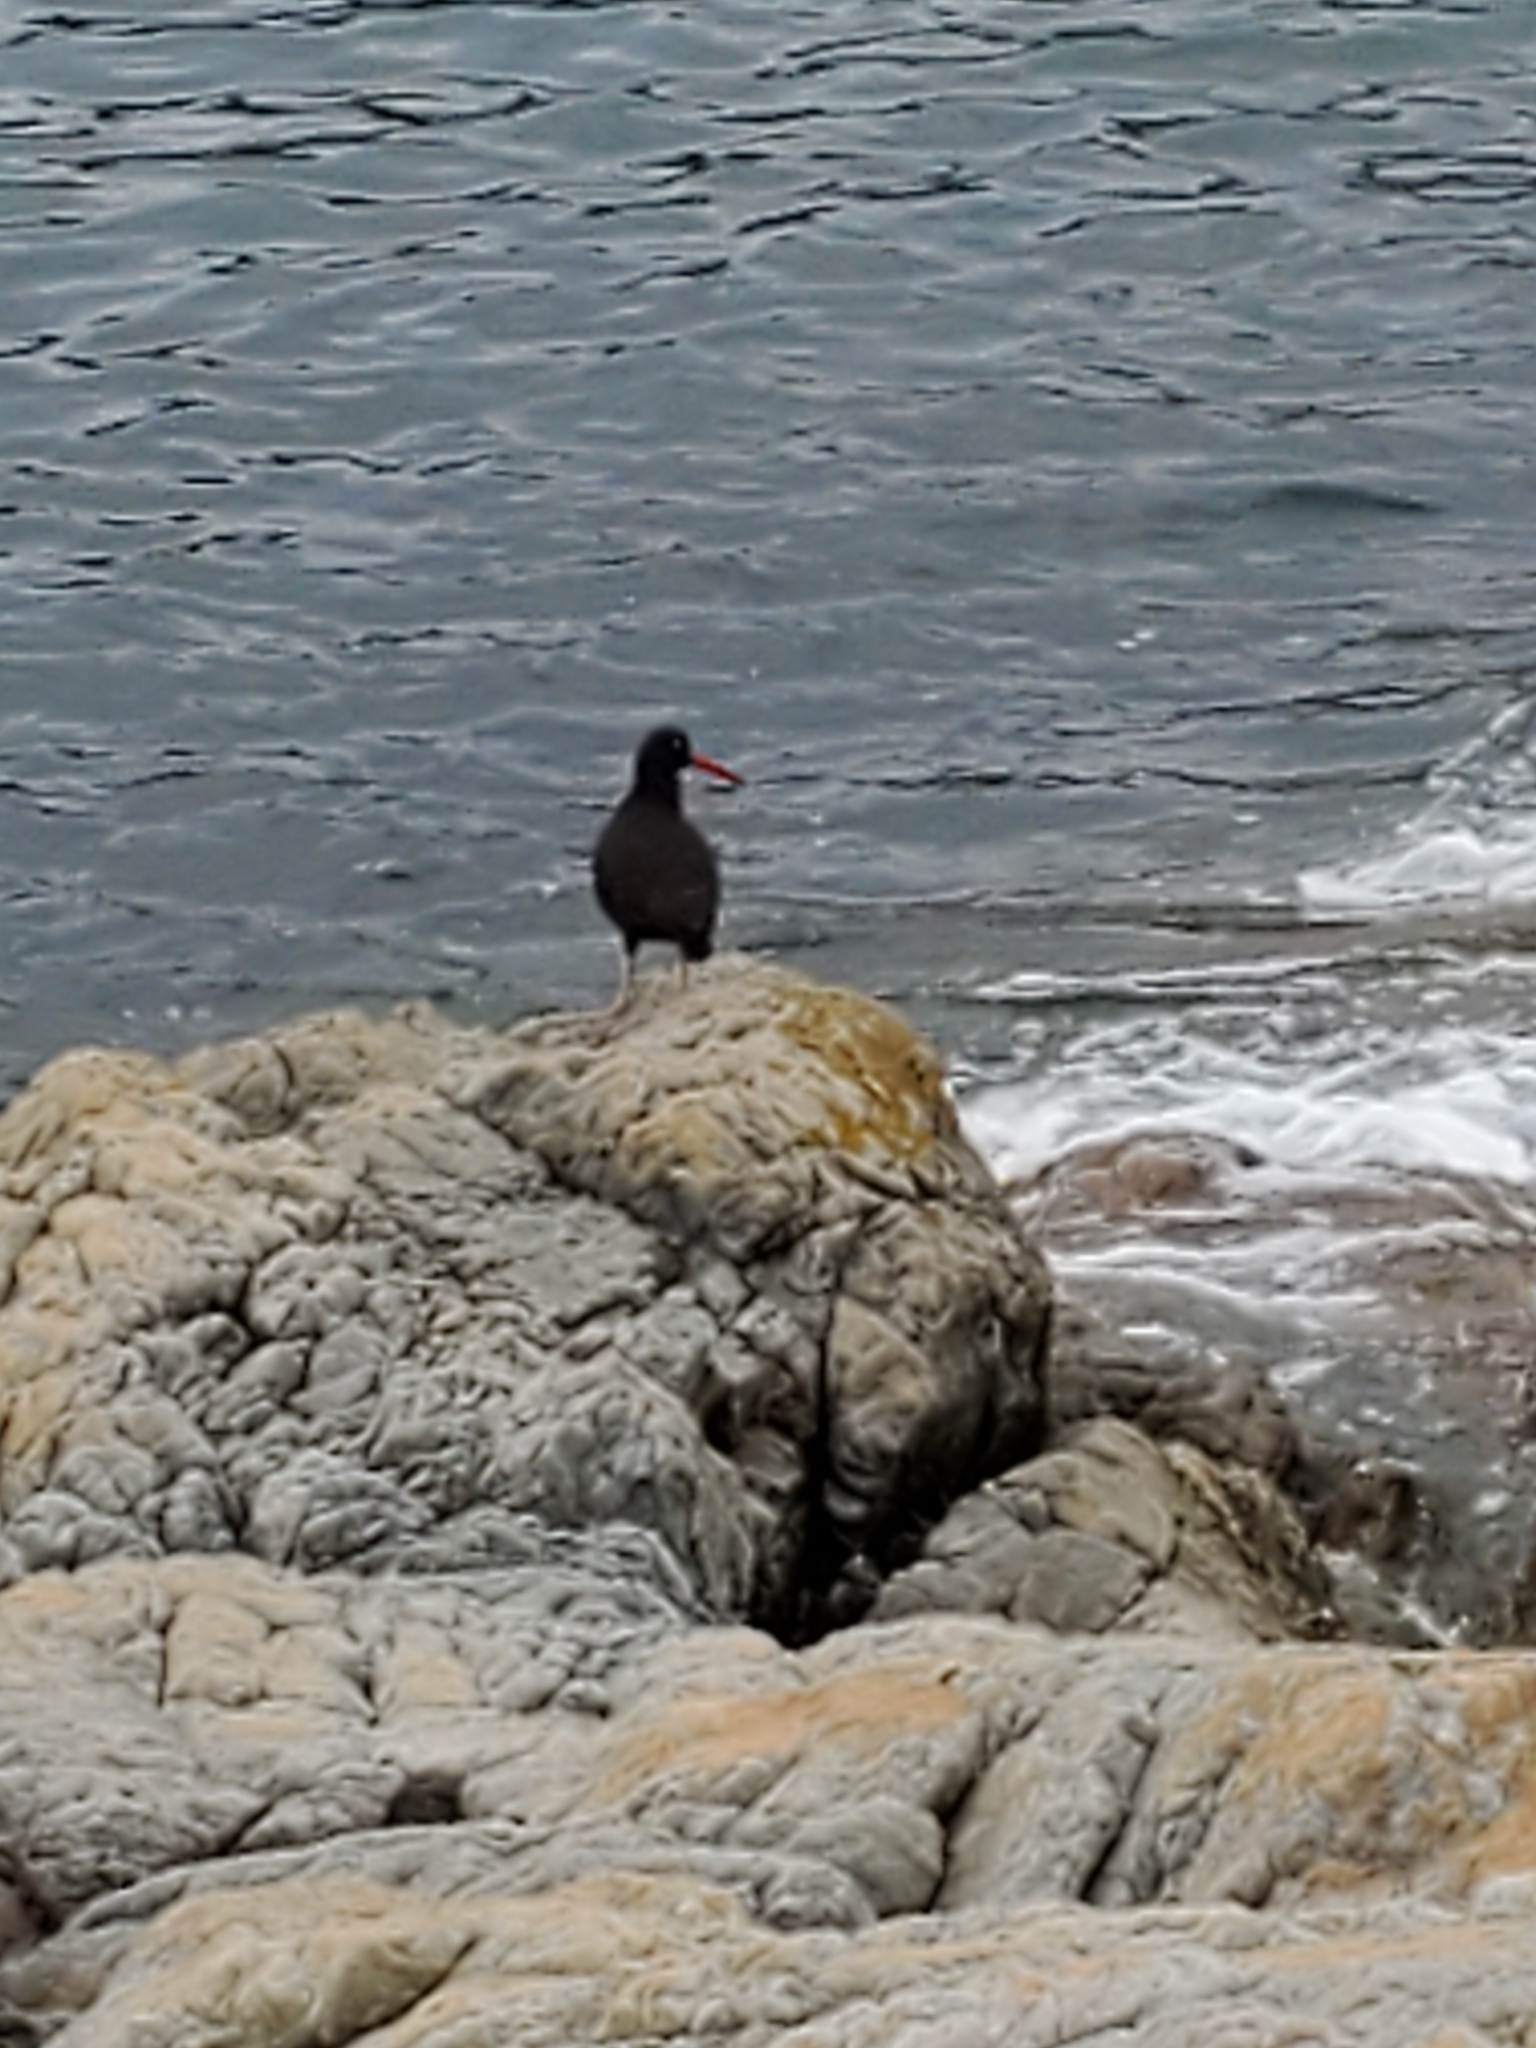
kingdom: Animalia
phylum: Chordata
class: Aves
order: Charadriiformes
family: Haematopodidae
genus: Haematopus
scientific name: Haematopus bachmani
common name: Black oystercatcher
